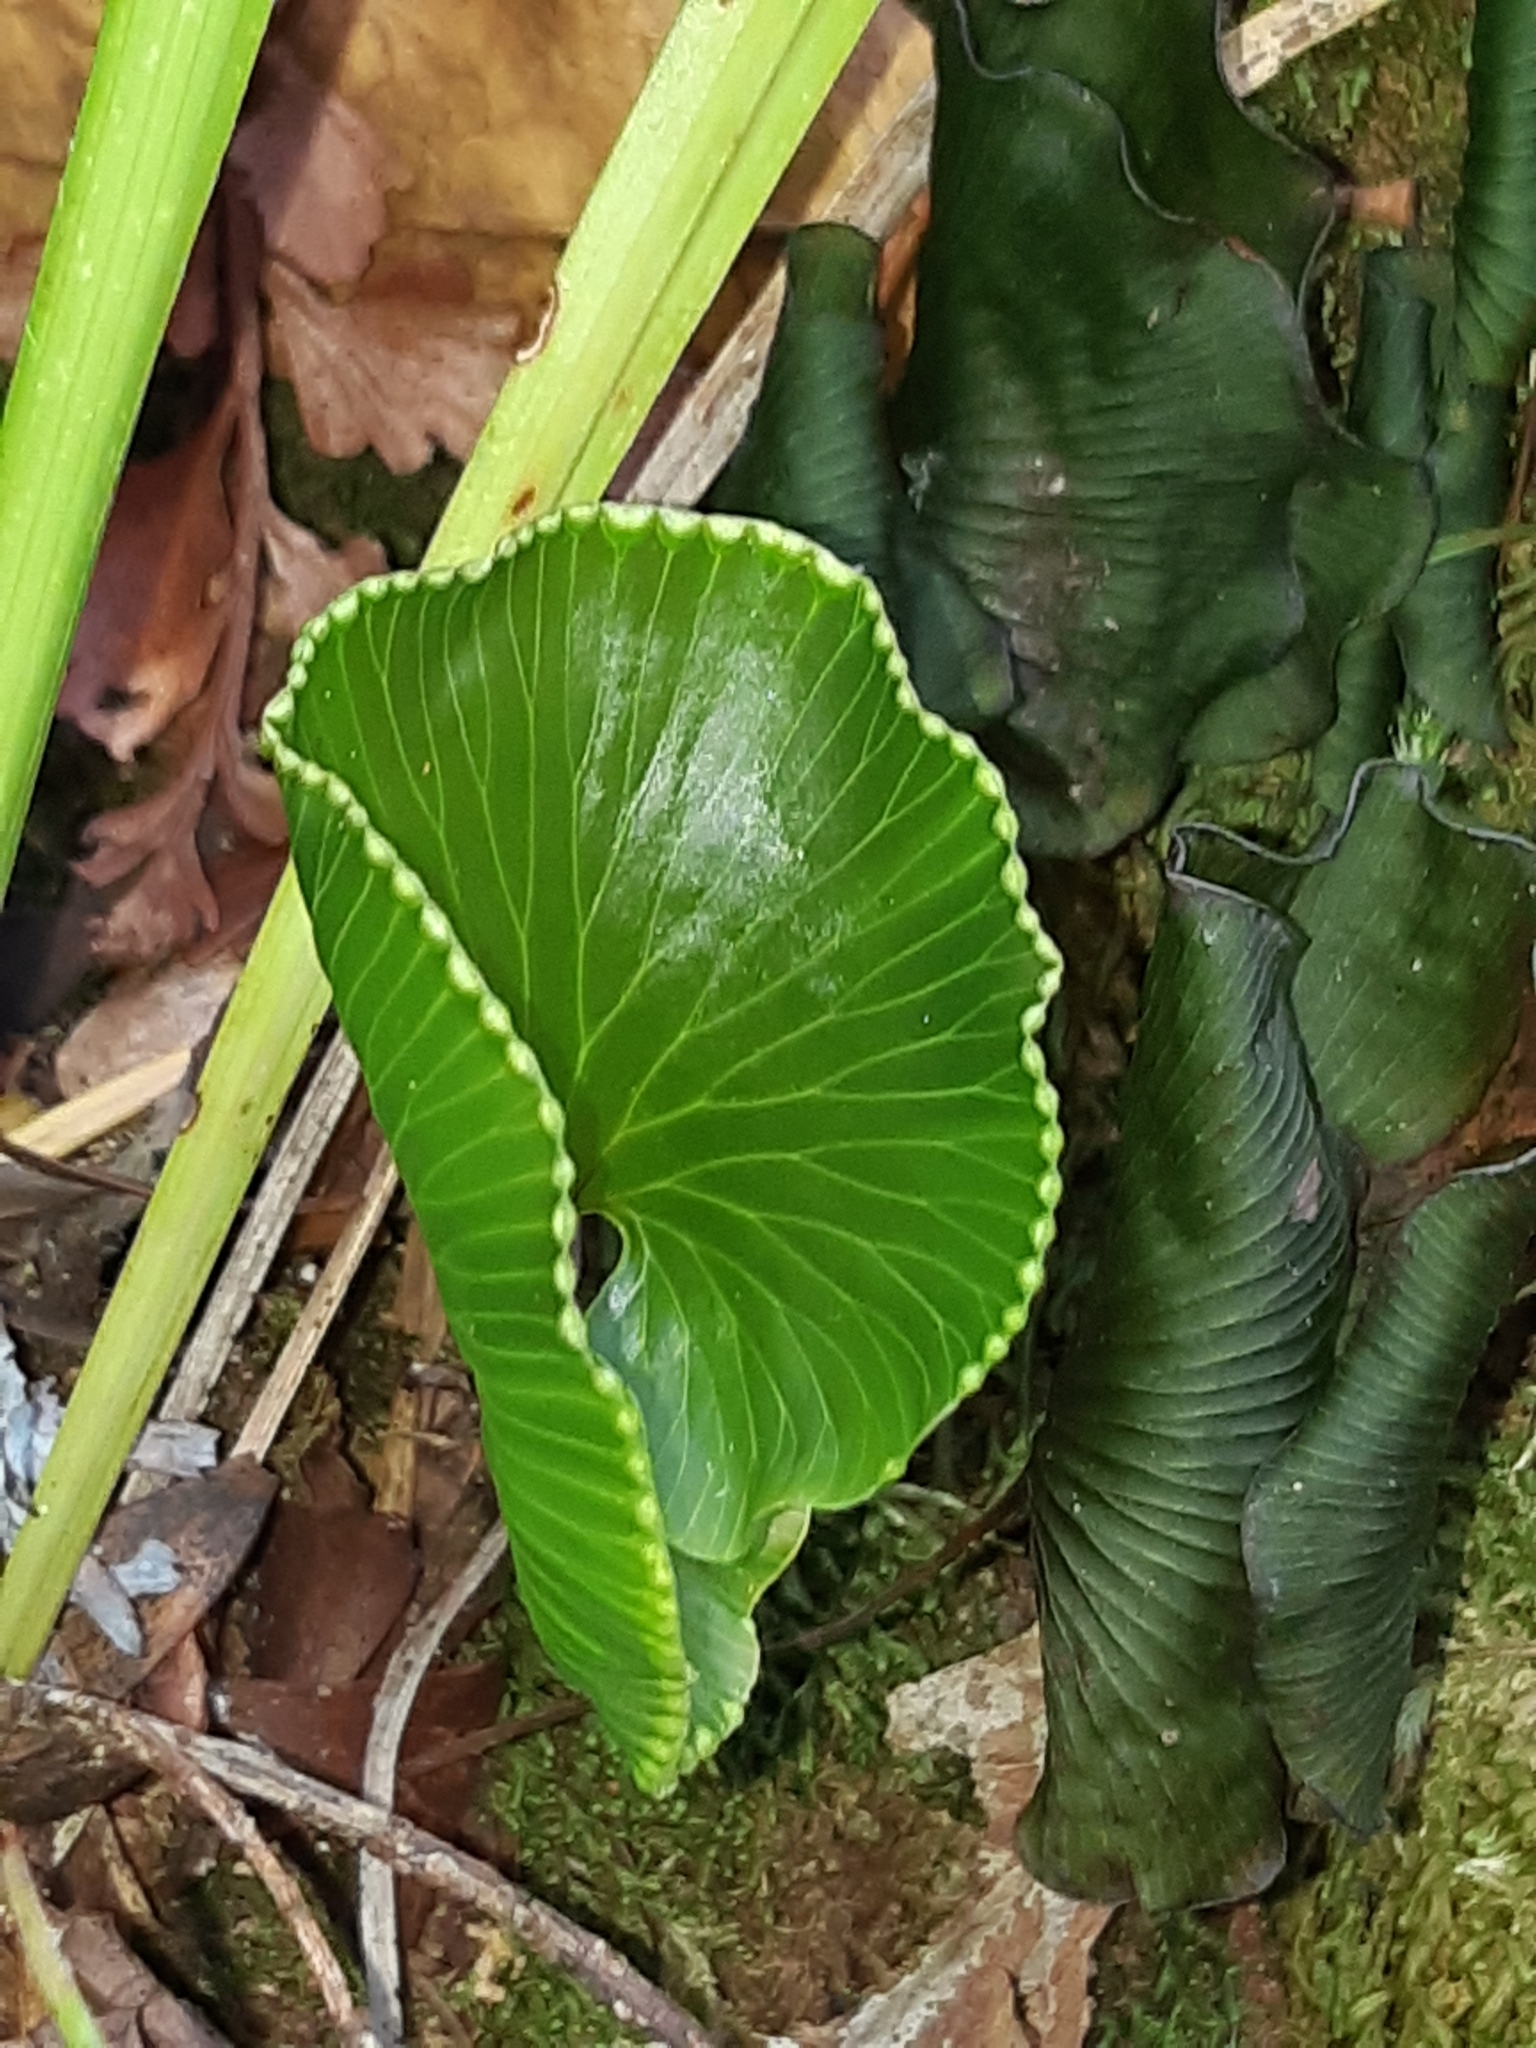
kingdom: Plantae
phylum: Tracheophyta
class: Polypodiopsida
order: Hymenophyllales
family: Hymenophyllaceae
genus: Hymenophyllum
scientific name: Hymenophyllum nephrophyllum
